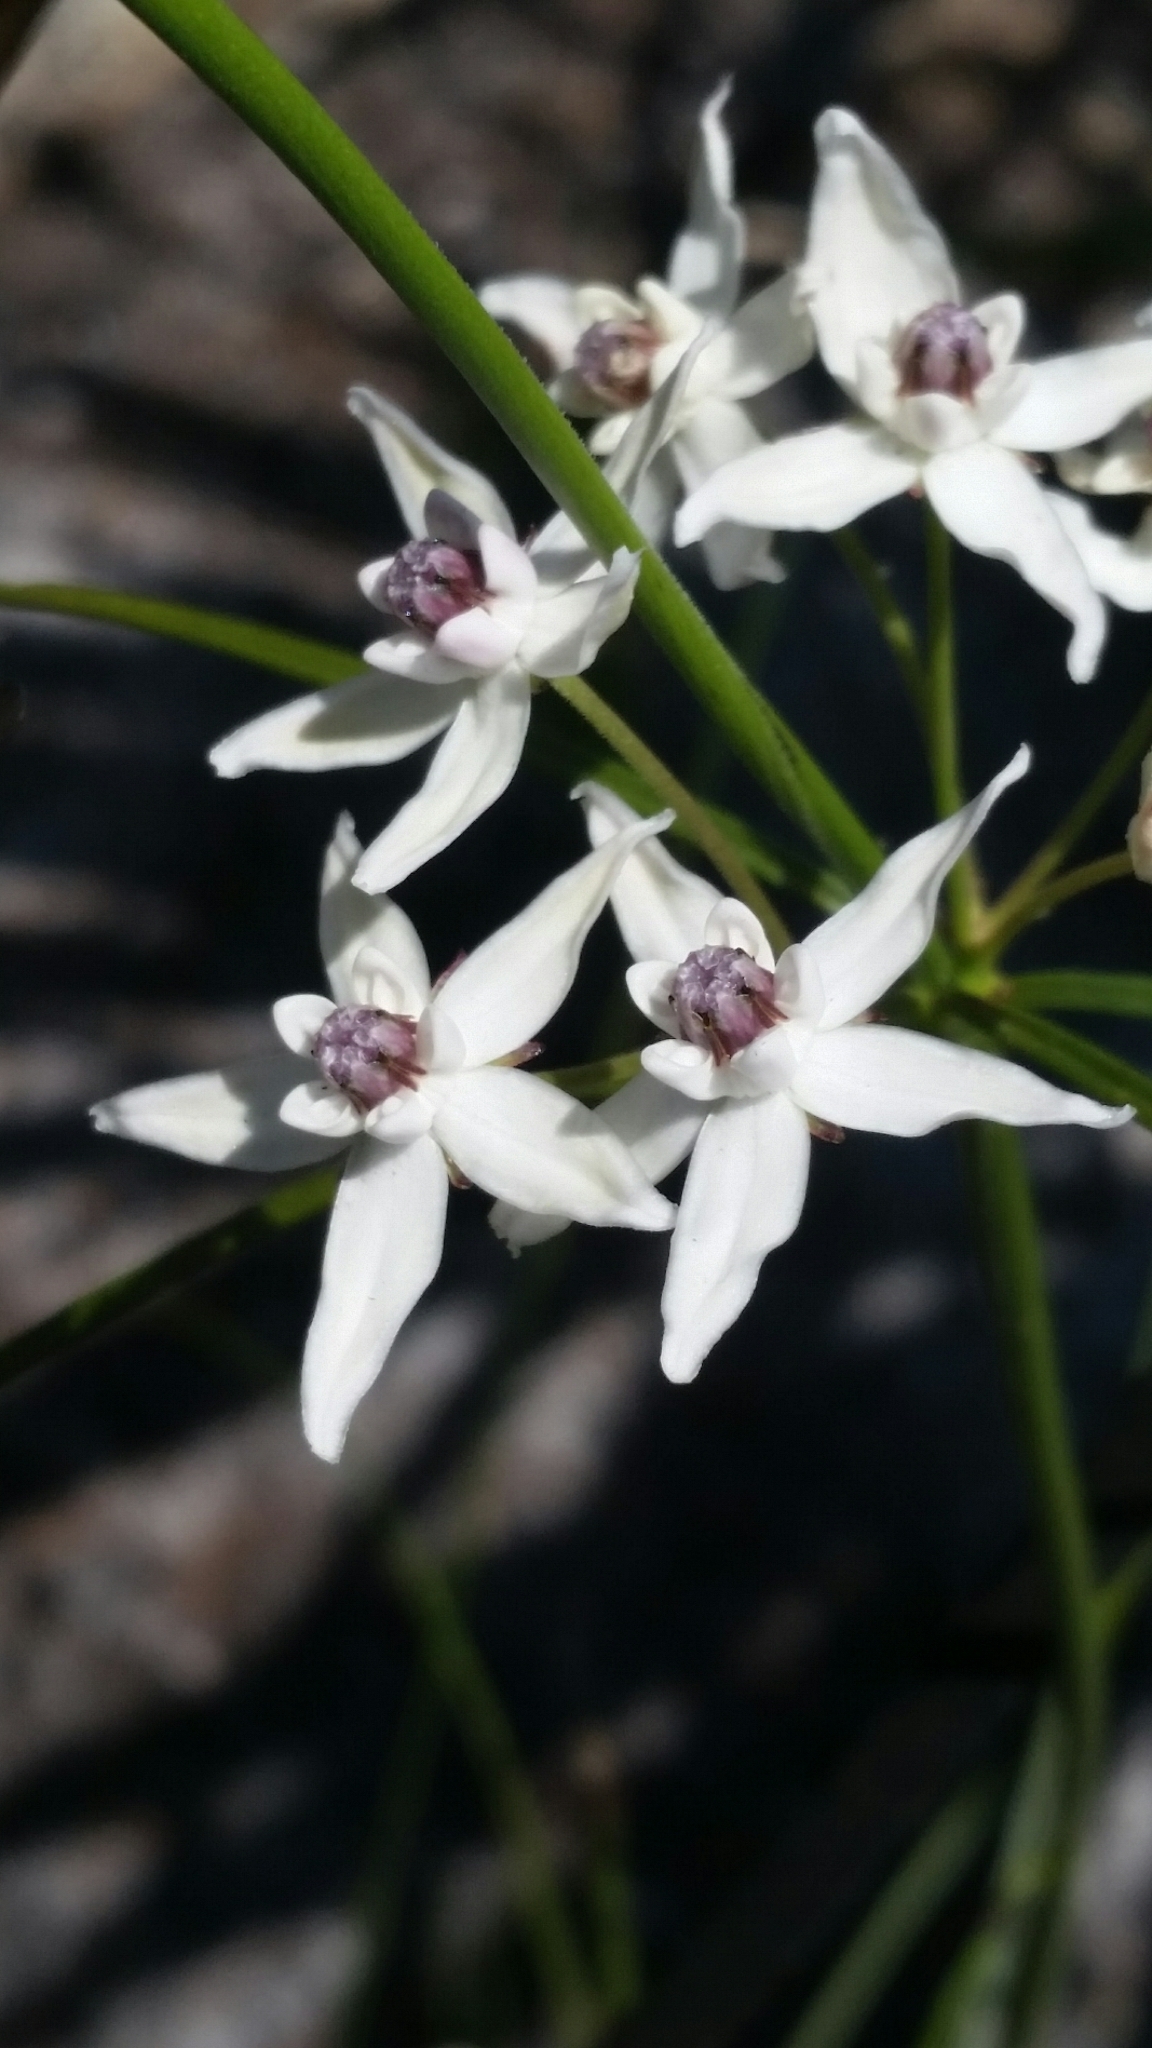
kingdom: Plantae
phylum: Tracheophyta
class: Magnoliopsida
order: Gentianales
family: Apocynaceae
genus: Asclepias
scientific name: Asclepias feayi
